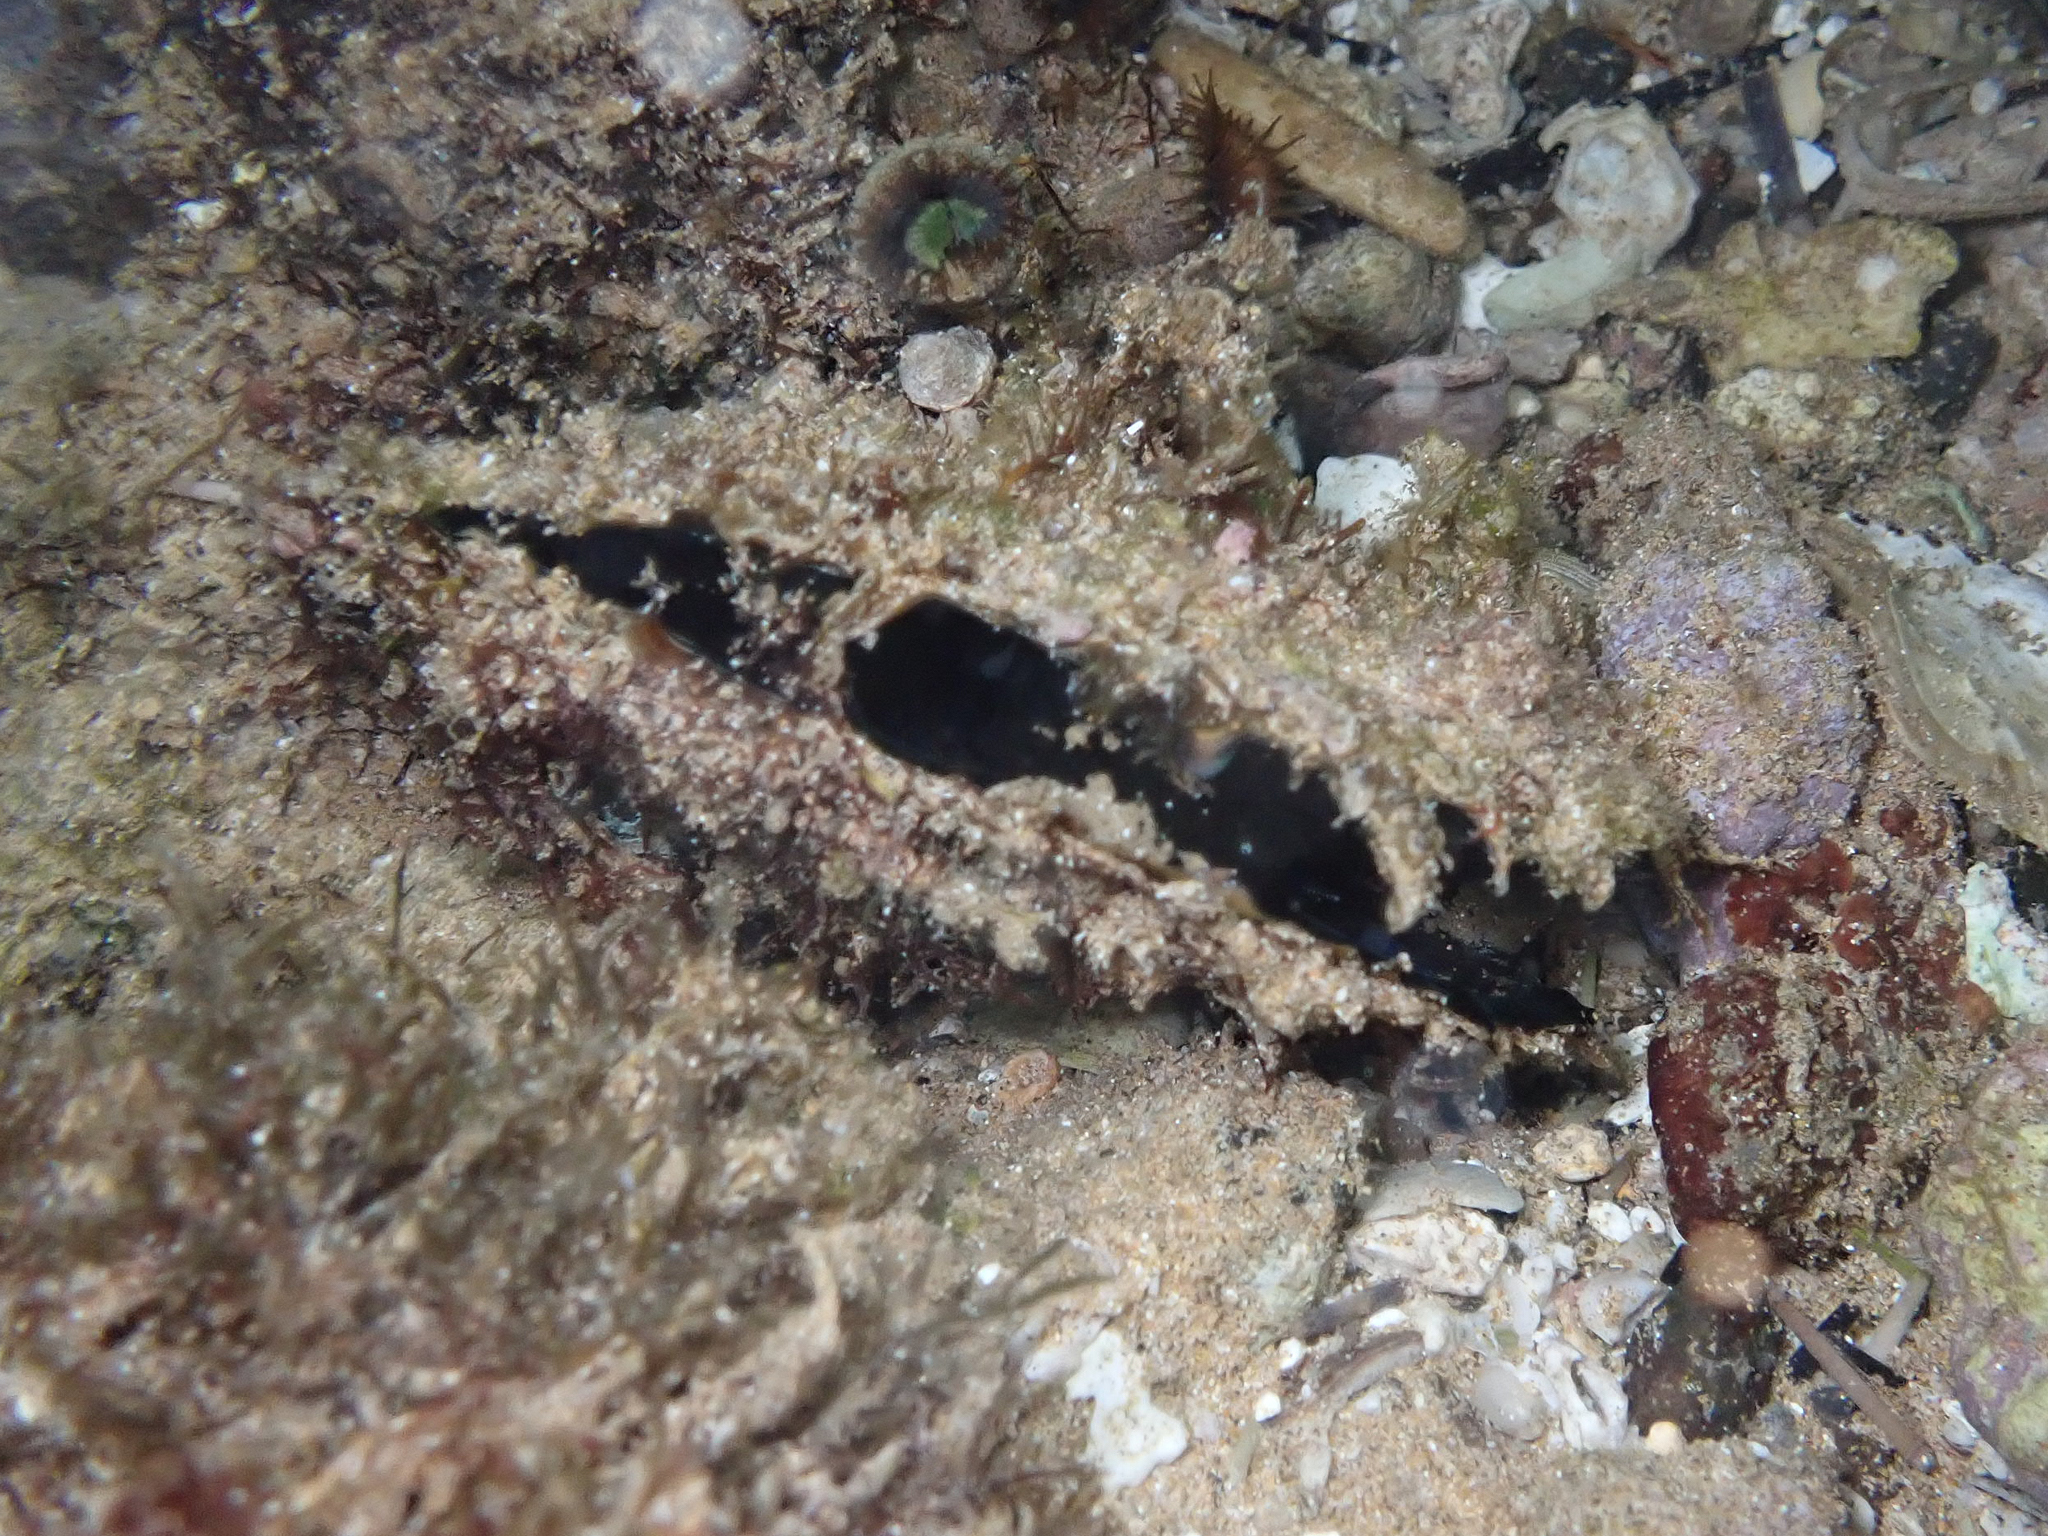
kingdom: Animalia
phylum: Mollusca
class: Bivalvia
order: Ostreida
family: Margaritidae
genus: Pinctada
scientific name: Pinctada margaritifera
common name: Pacific pearl-oyster
